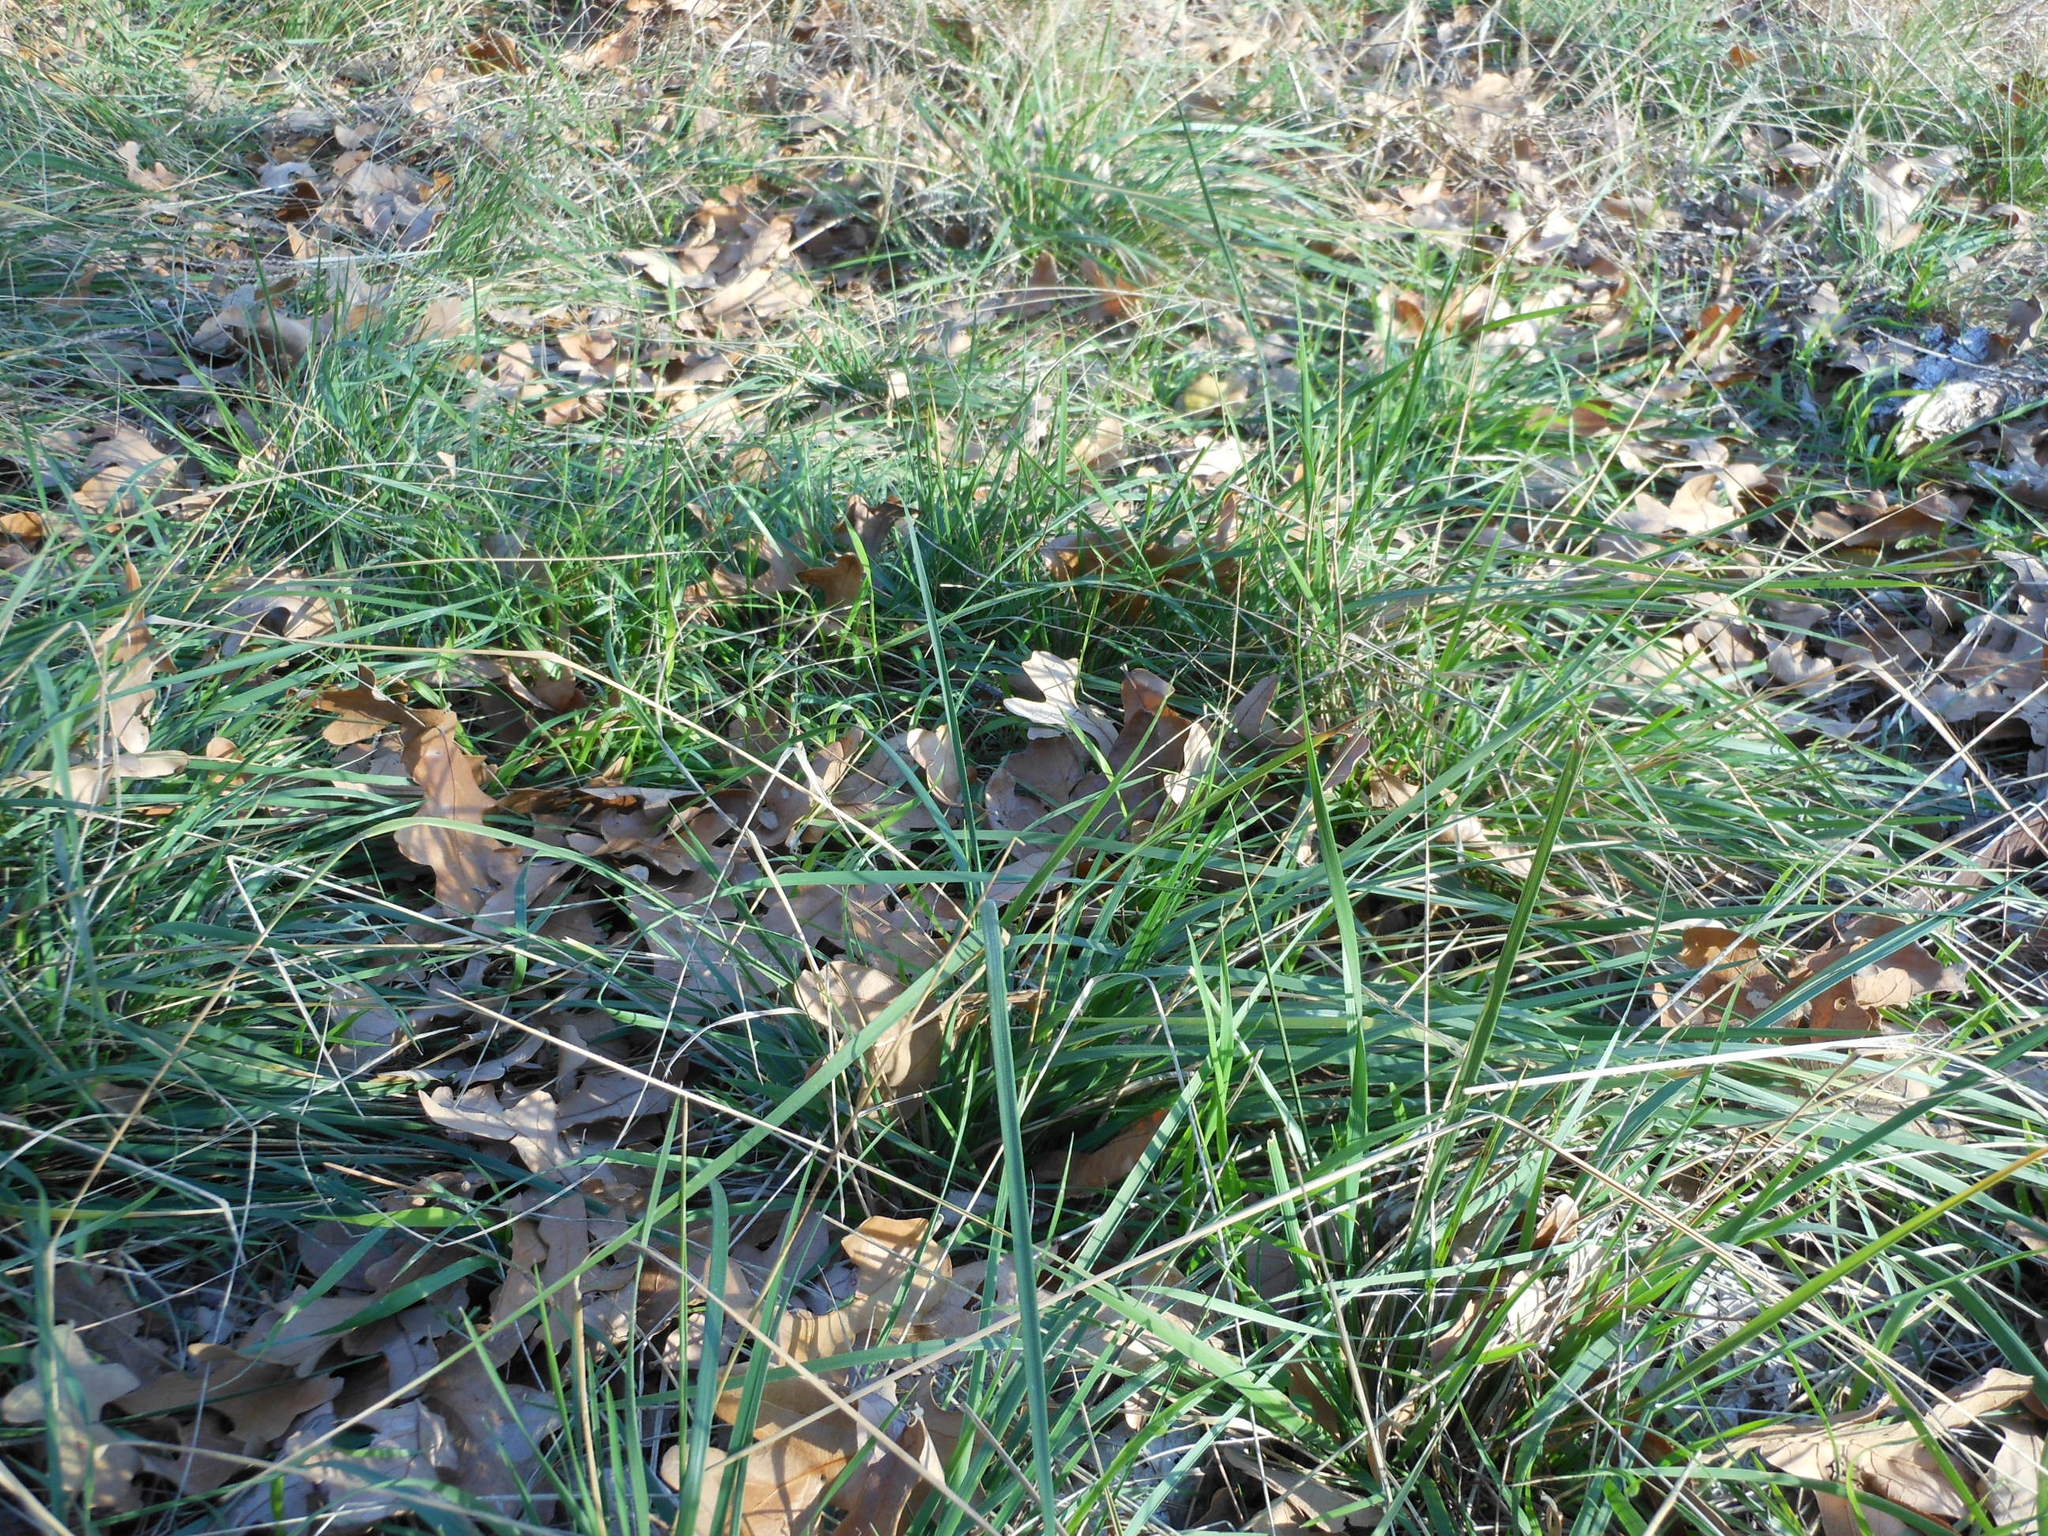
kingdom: Plantae
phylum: Tracheophyta
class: Liliopsida
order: Poales
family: Poaceae
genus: Nassella
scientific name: Nassella leucotricha
